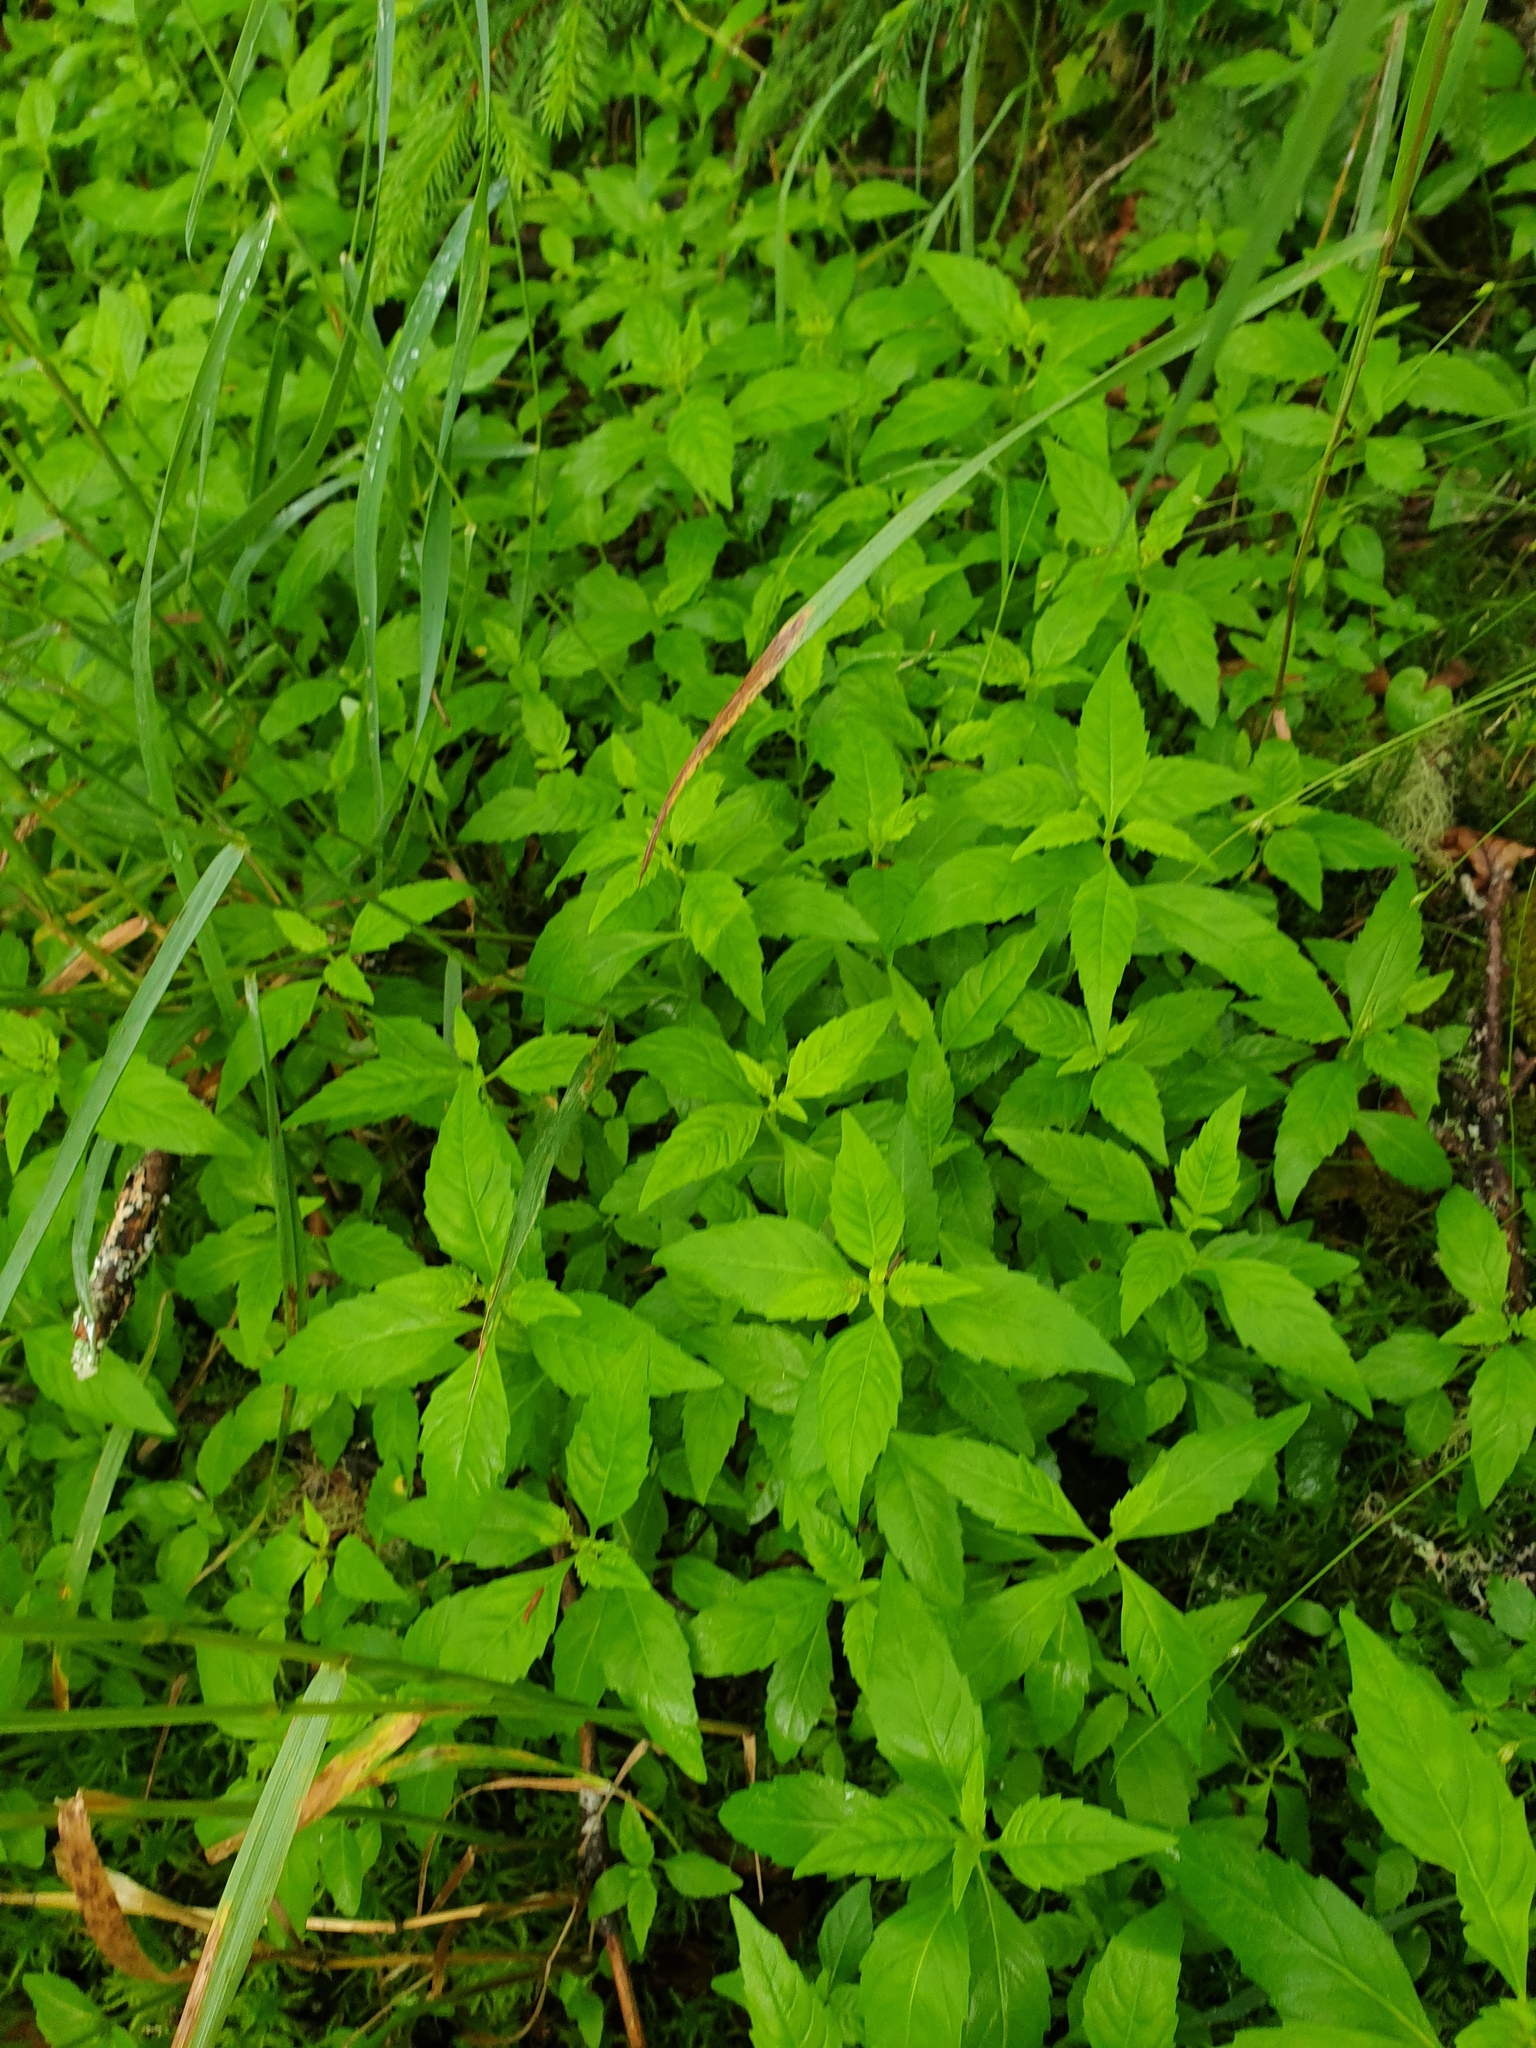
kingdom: Plantae
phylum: Tracheophyta
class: Magnoliopsida
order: Lamiales
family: Lamiaceae
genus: Lycopus
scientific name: Lycopus uniflorus
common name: Northern bugleweed
